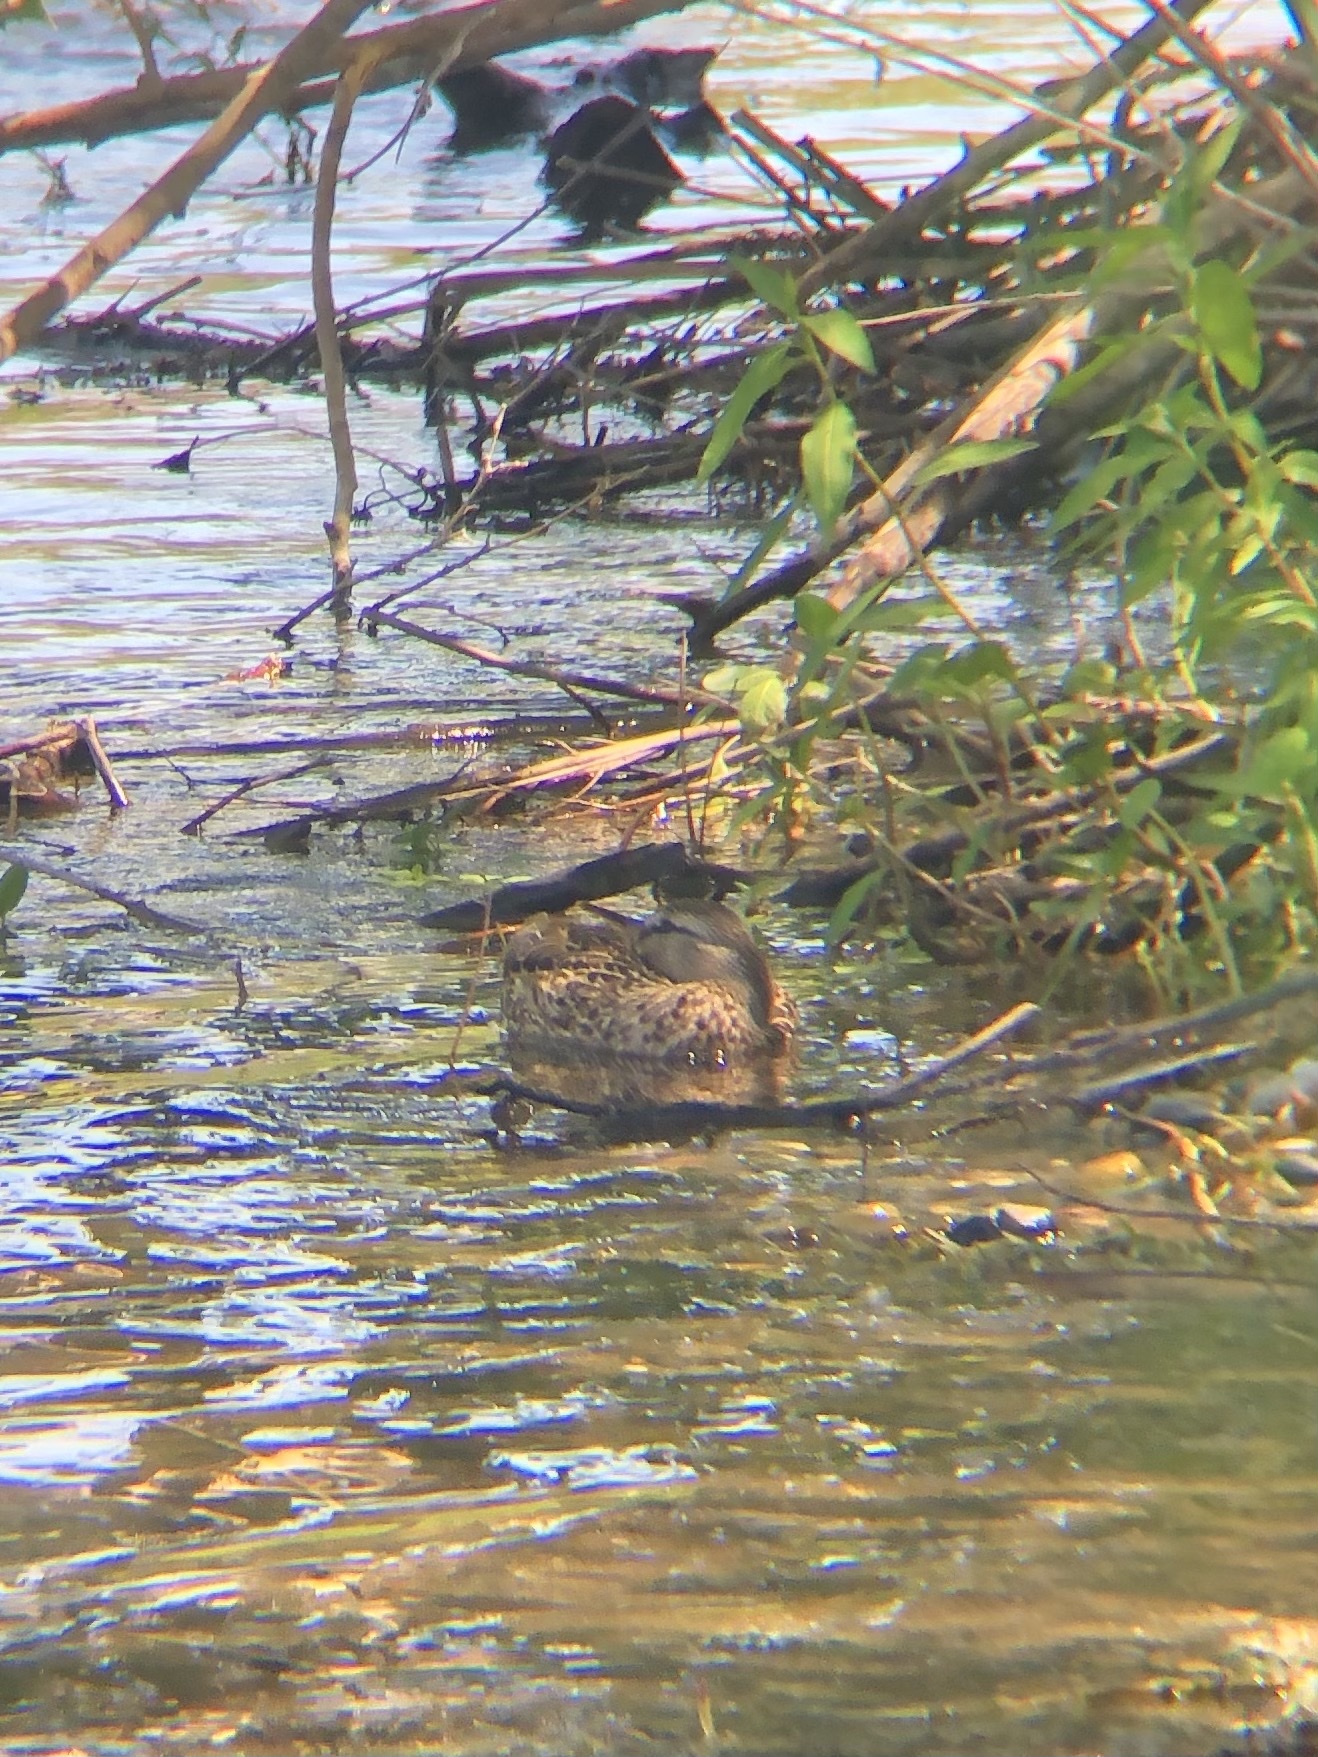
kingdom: Animalia
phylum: Chordata
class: Aves
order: Anseriformes
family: Anatidae
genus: Anas
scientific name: Anas platyrhynchos
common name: Mallard
